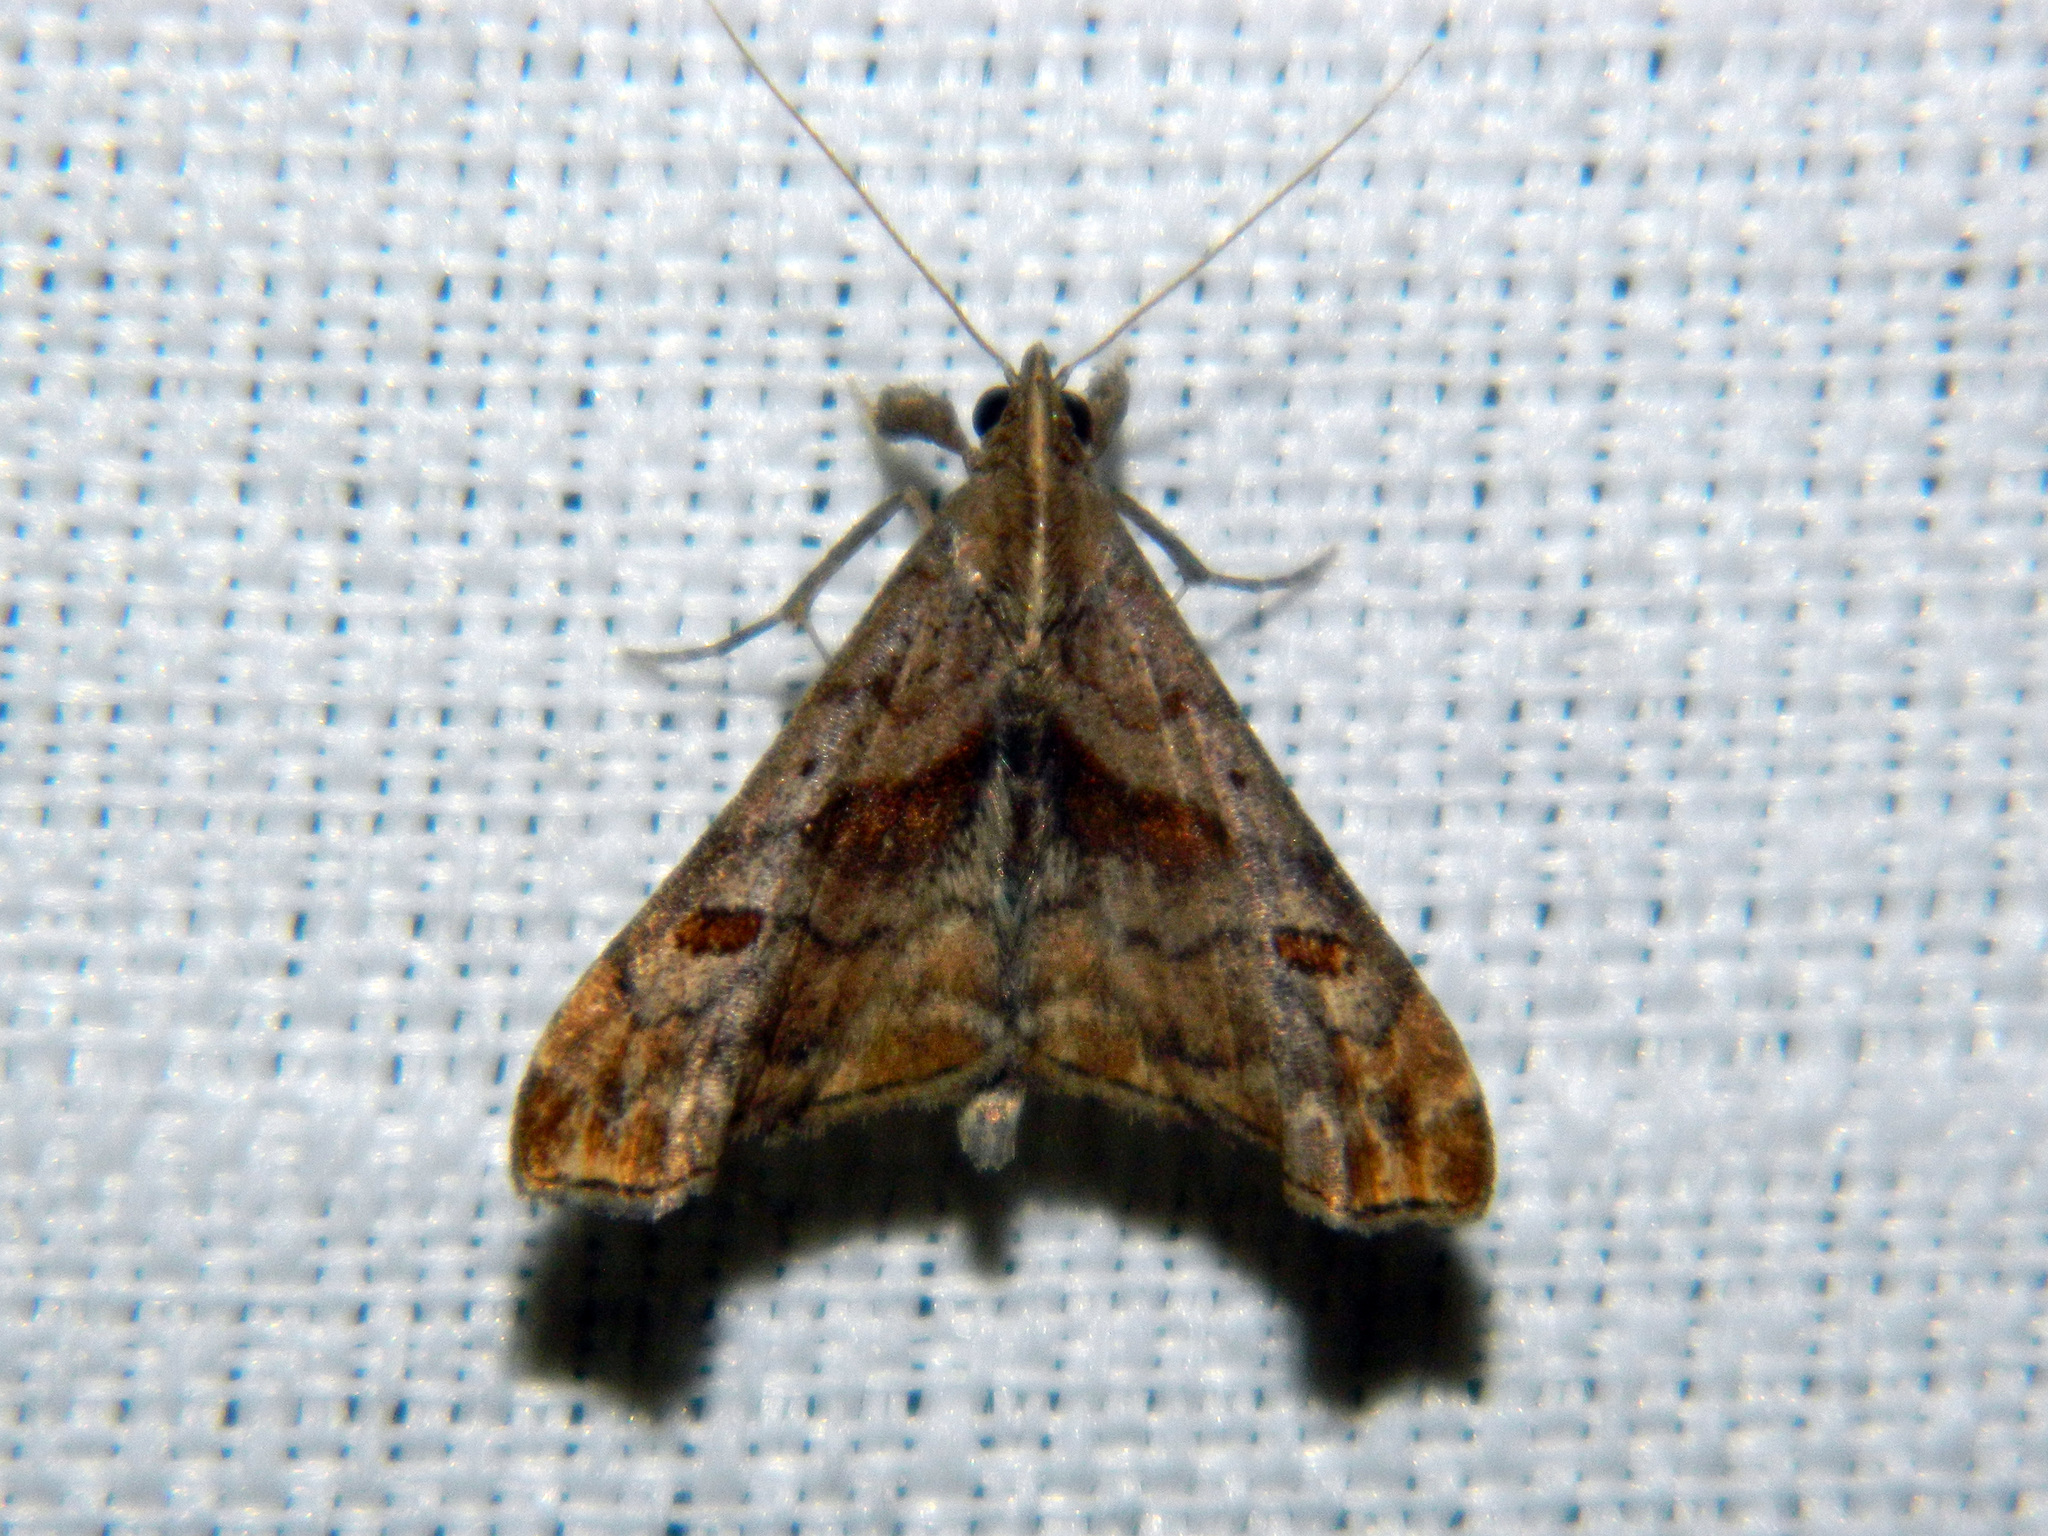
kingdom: Animalia
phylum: Arthropoda
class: Insecta
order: Lepidoptera
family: Erebidae
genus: Palthis
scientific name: Palthis angulalis
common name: Dark-spotted palthis moth
